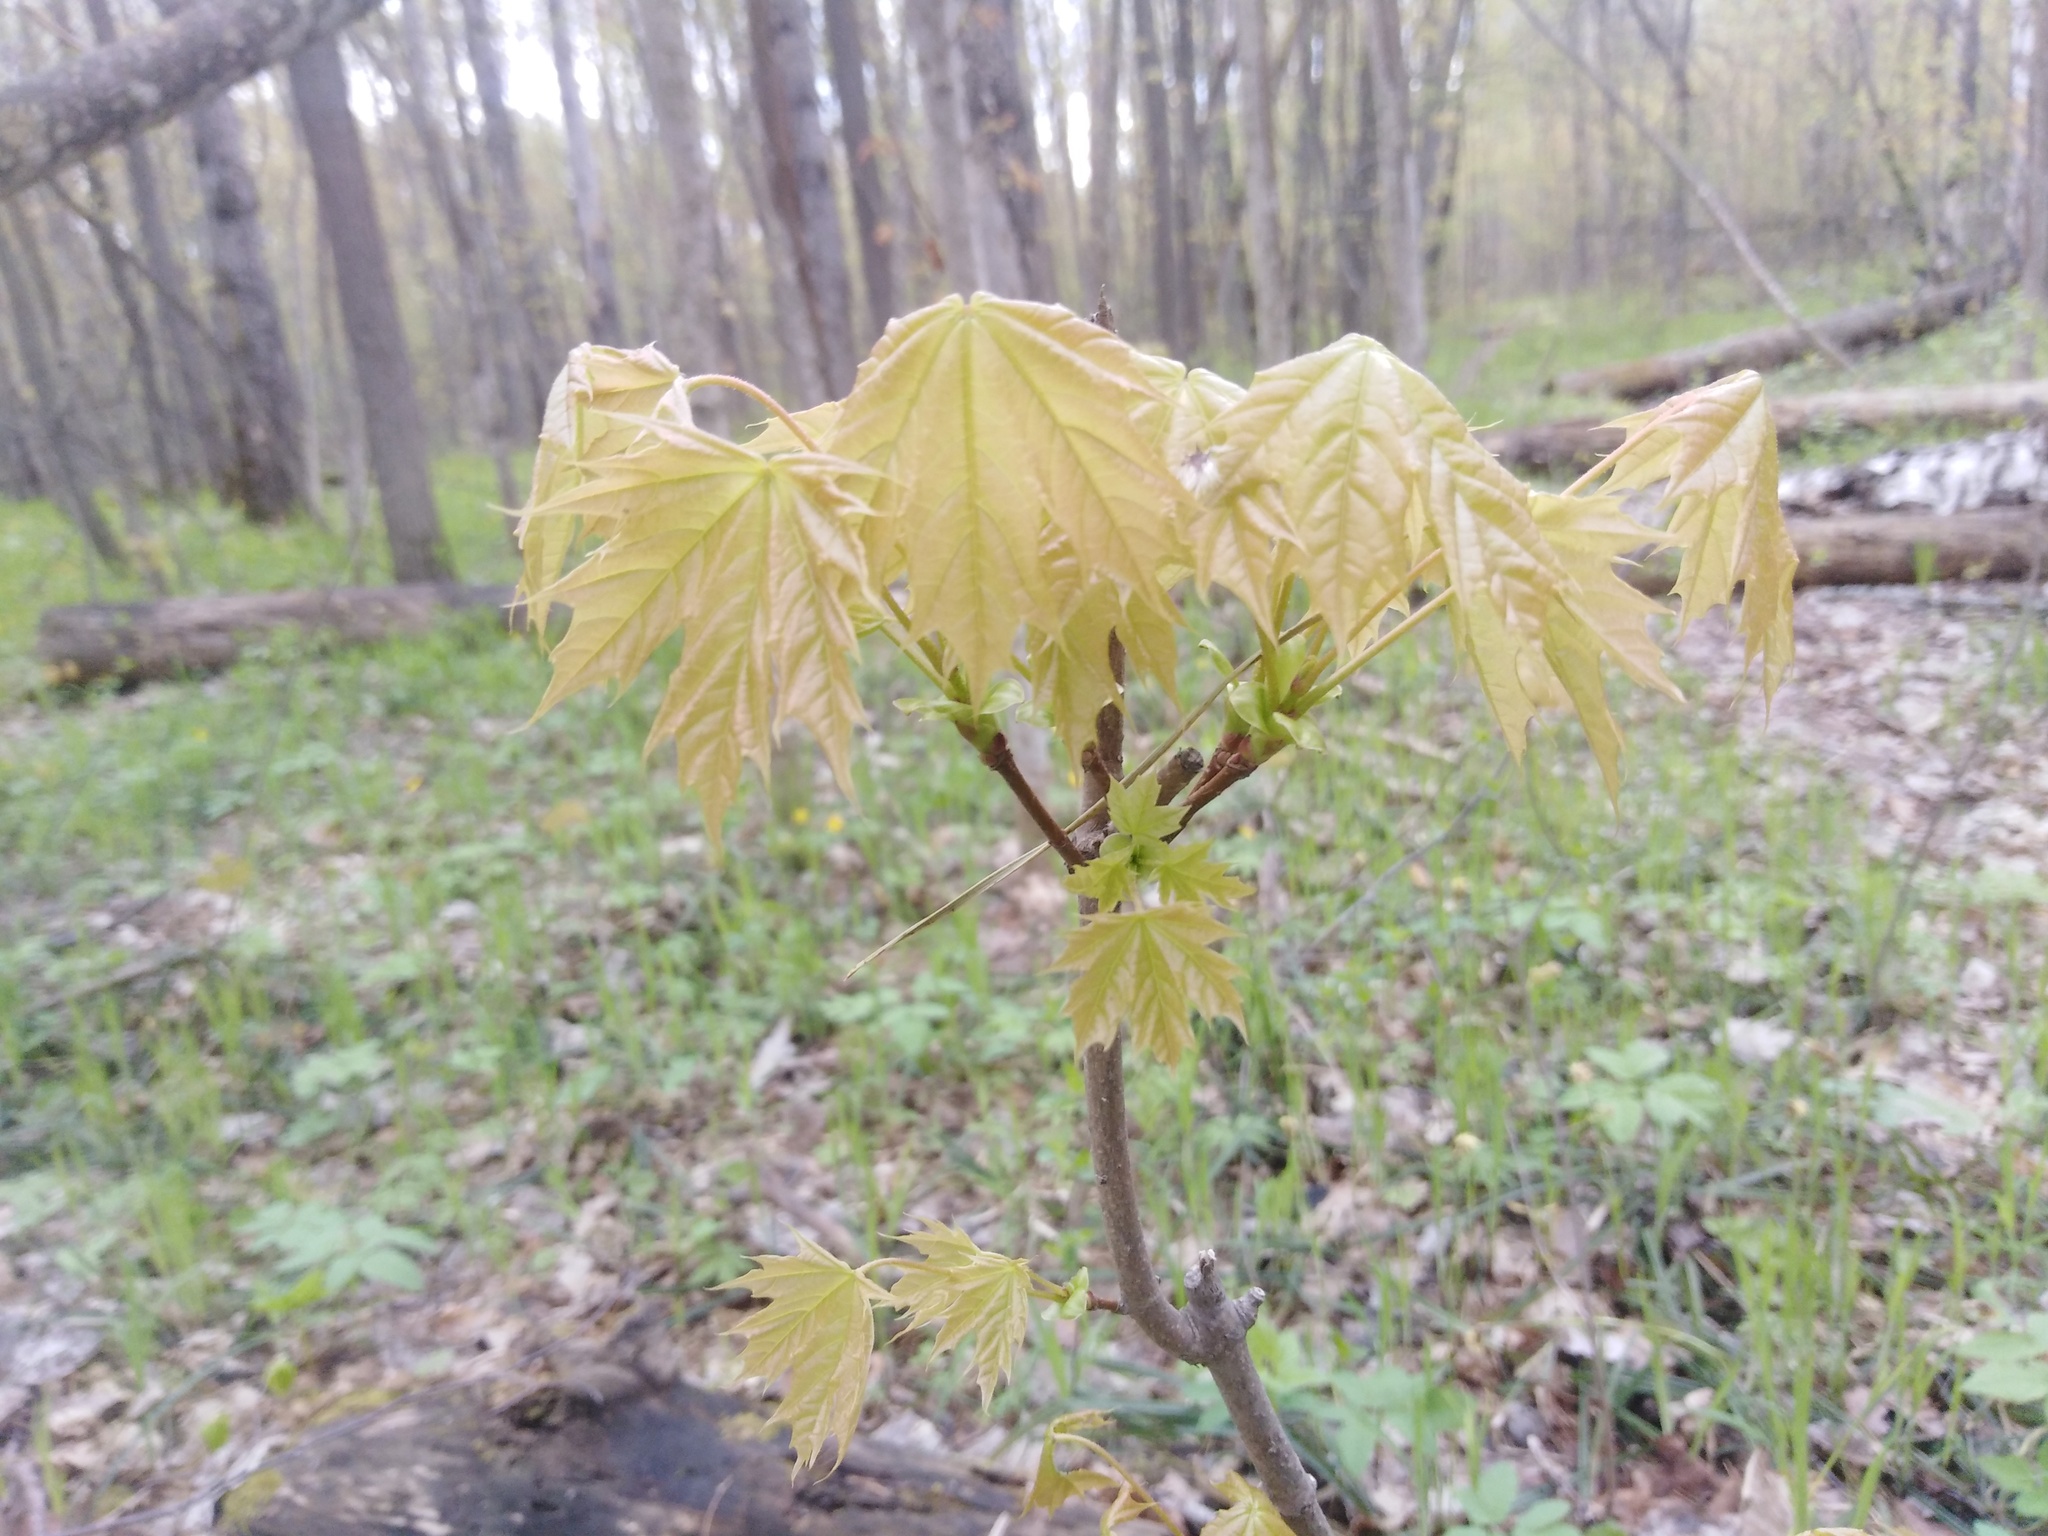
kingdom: Plantae
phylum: Tracheophyta
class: Magnoliopsida
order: Sapindales
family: Sapindaceae
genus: Acer
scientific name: Acer platanoides
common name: Norway maple
